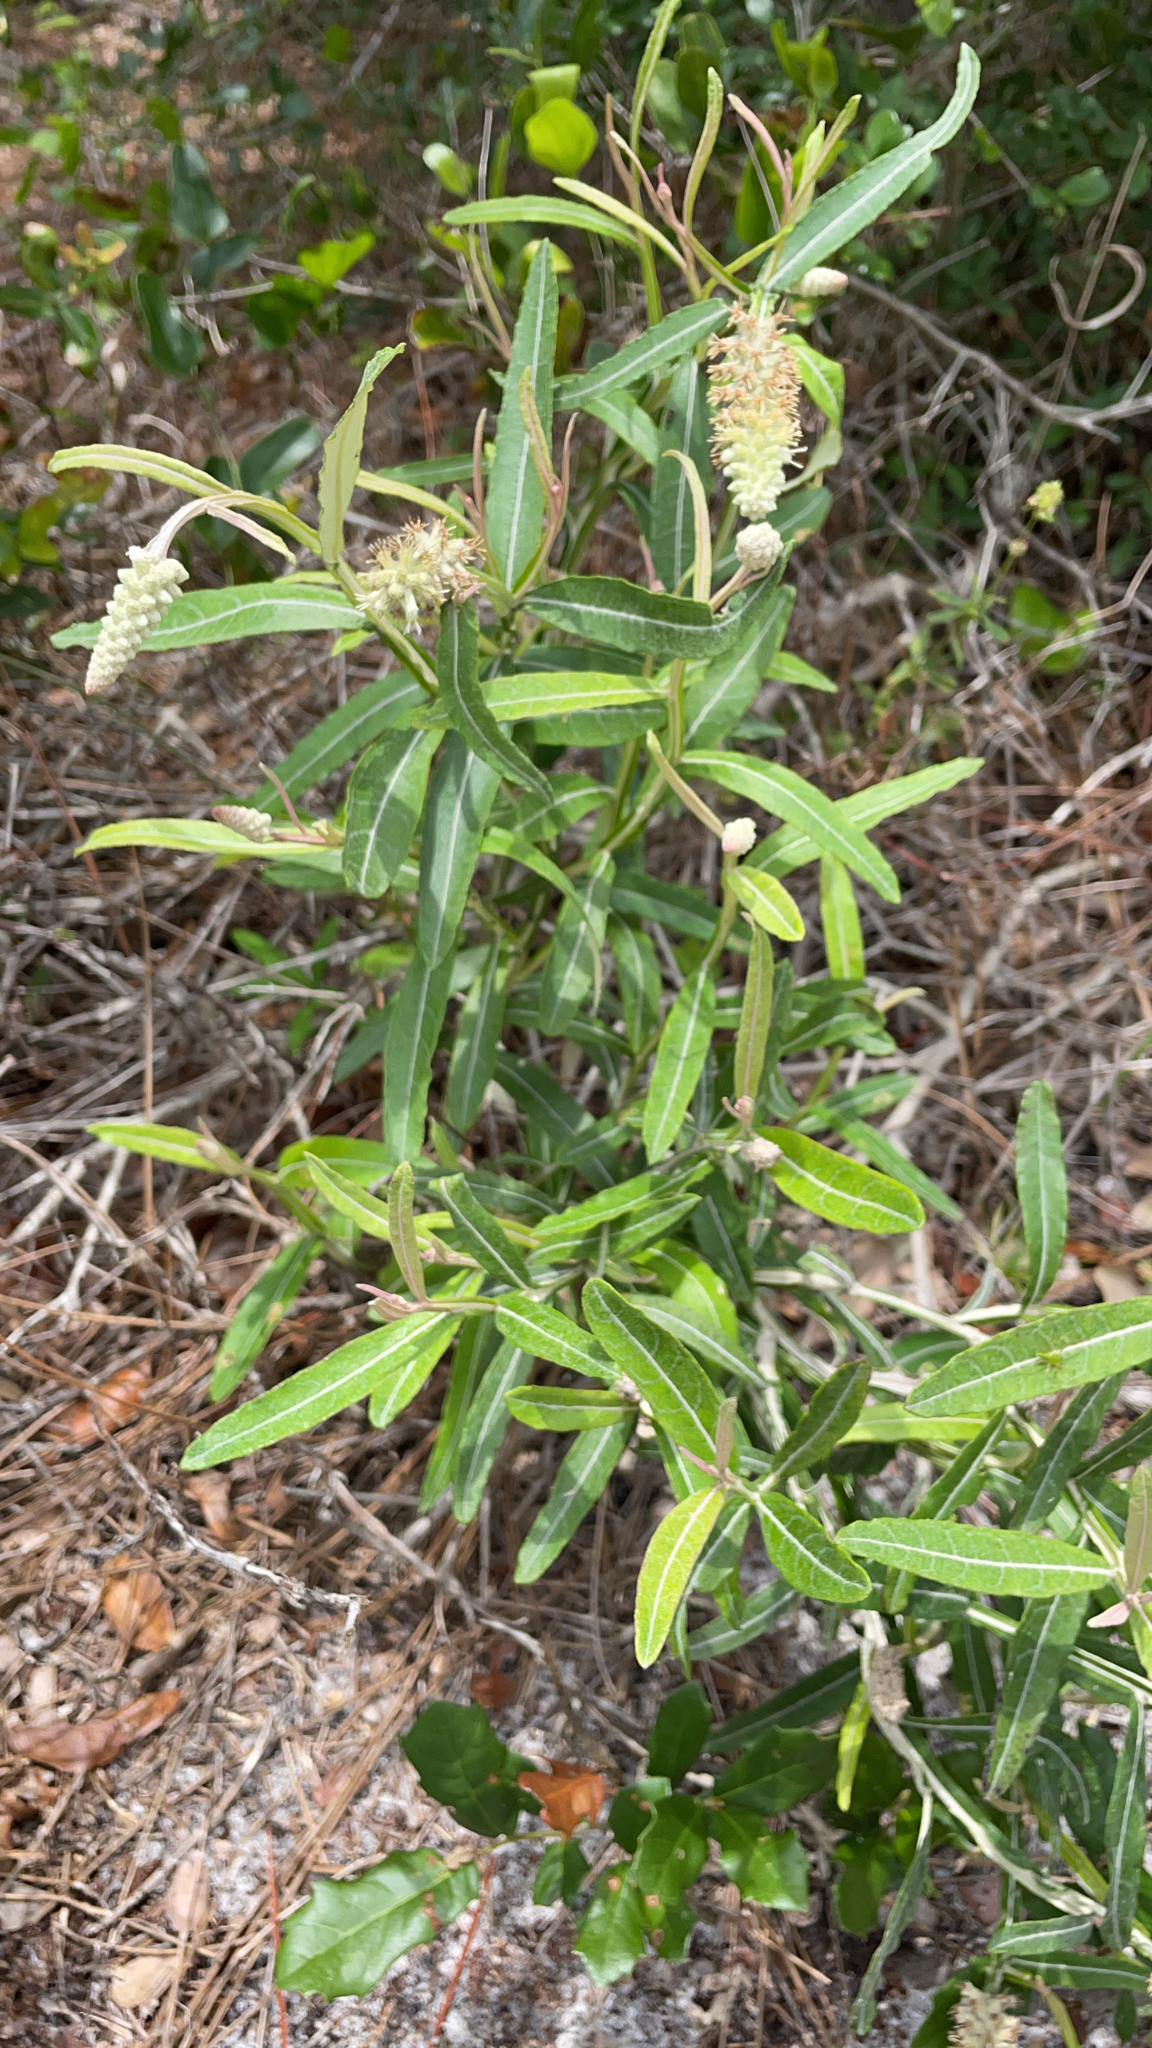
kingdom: Plantae
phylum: Tracheophyta
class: Magnoliopsida
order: Asterales
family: Asteraceae
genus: Pterocaulon
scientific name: Pterocaulon pycnostachyum
